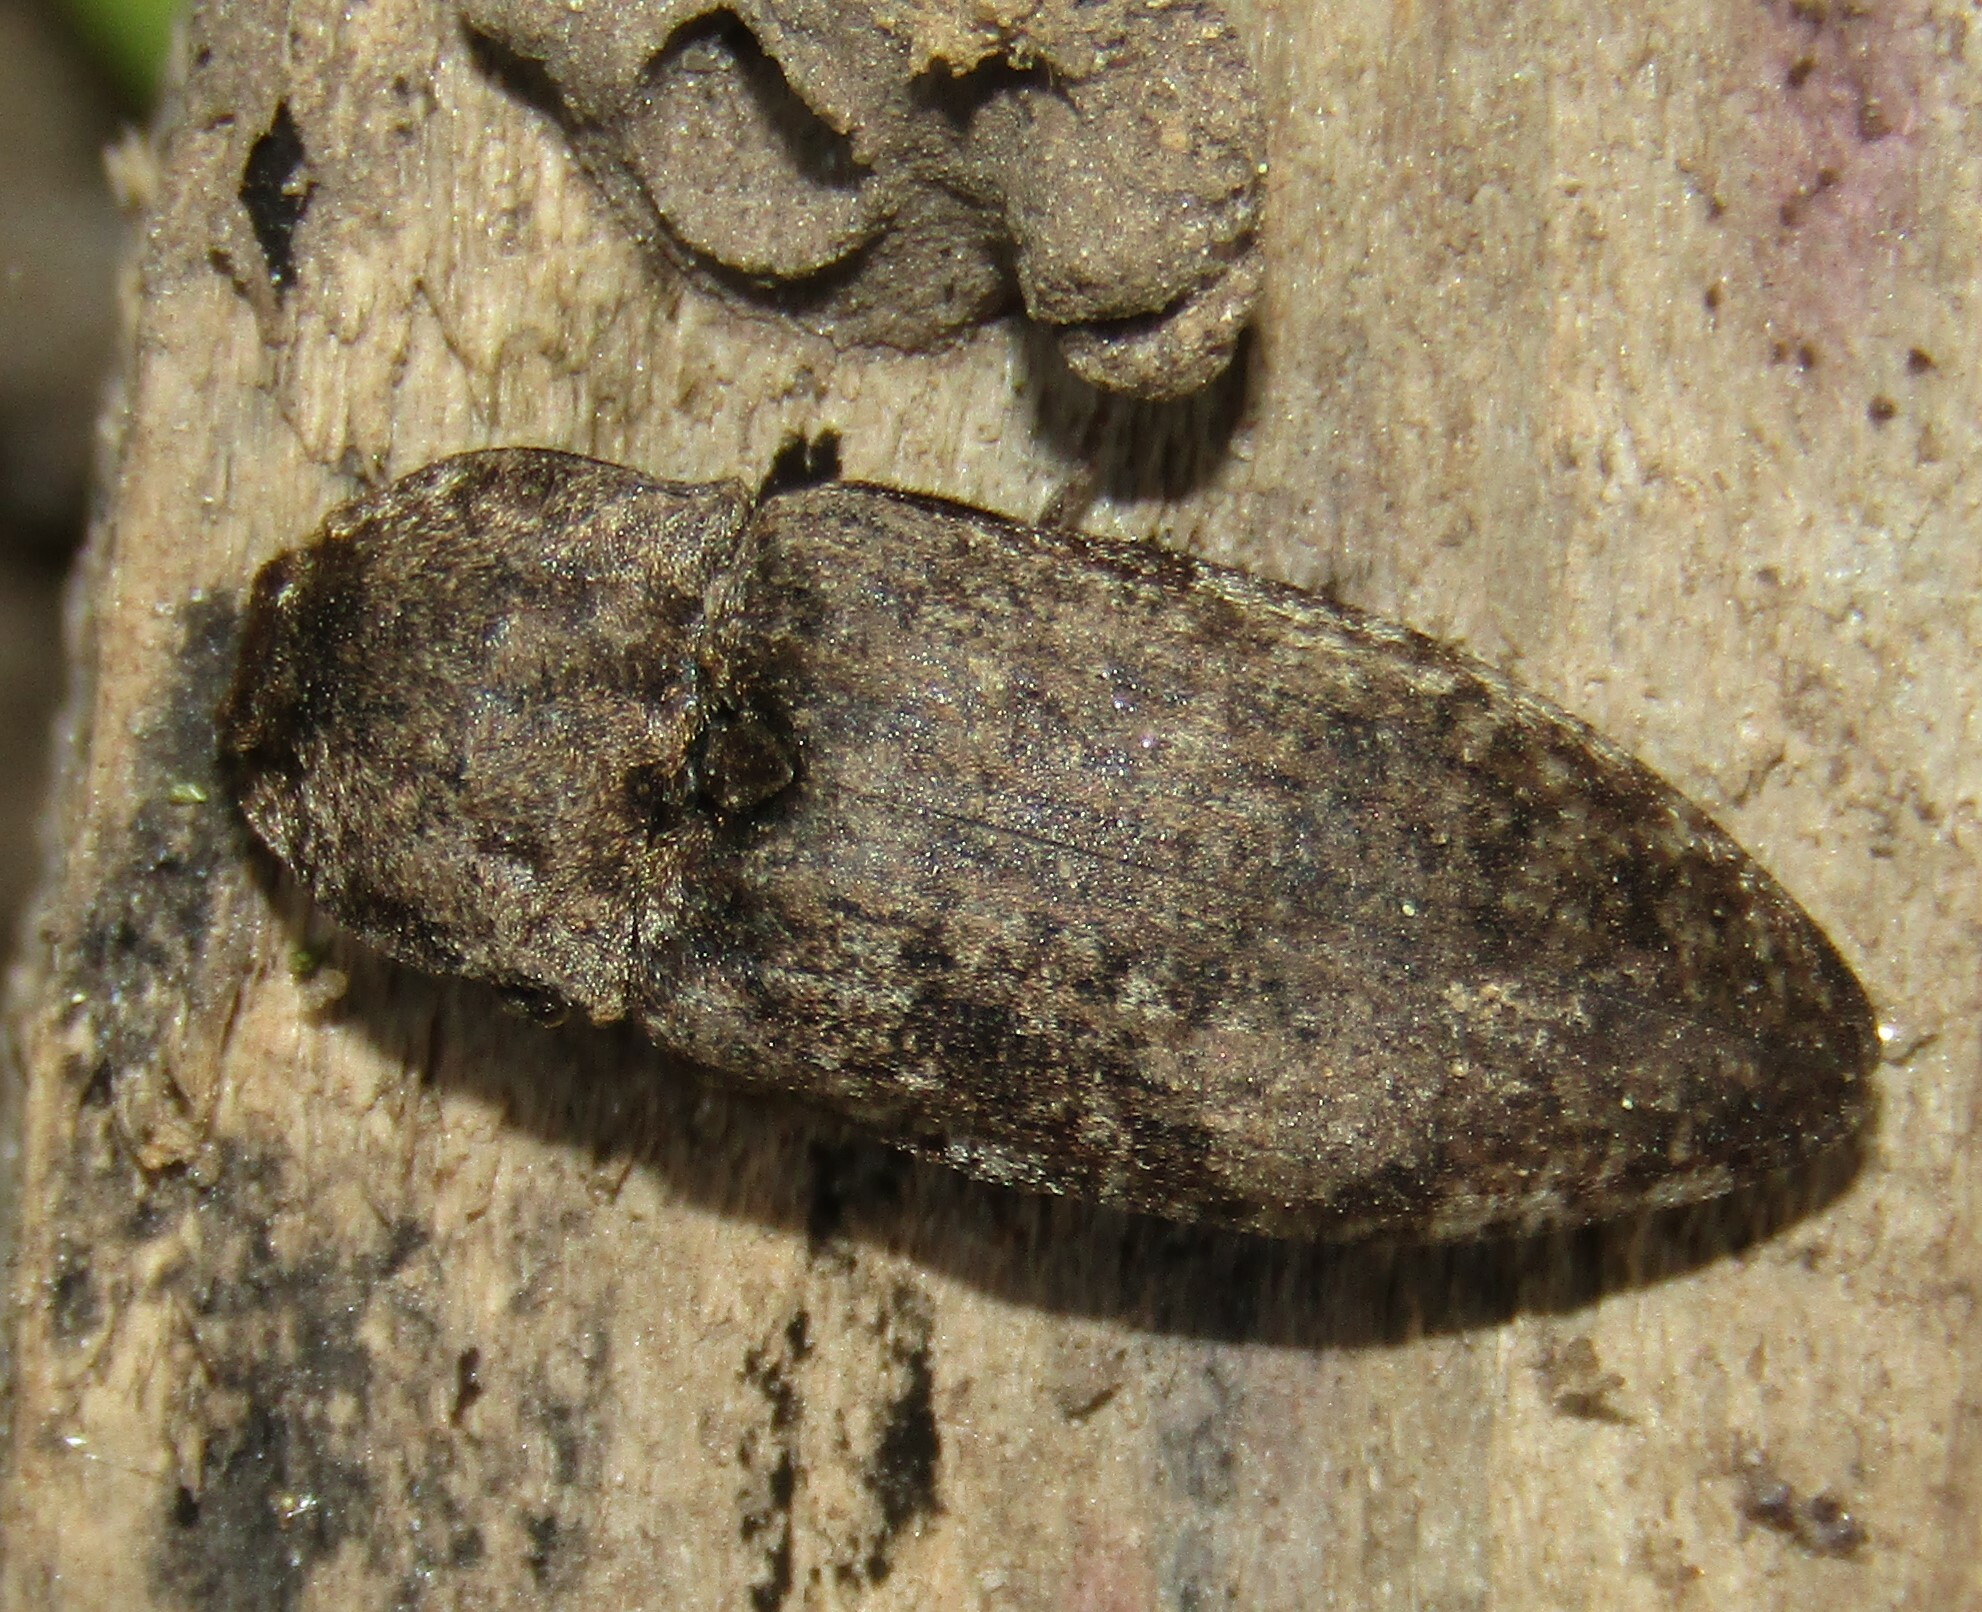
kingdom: Animalia
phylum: Arthropoda
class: Insecta
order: Coleoptera
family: Elateridae
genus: Agrypnus
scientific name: Agrypnus murinus
